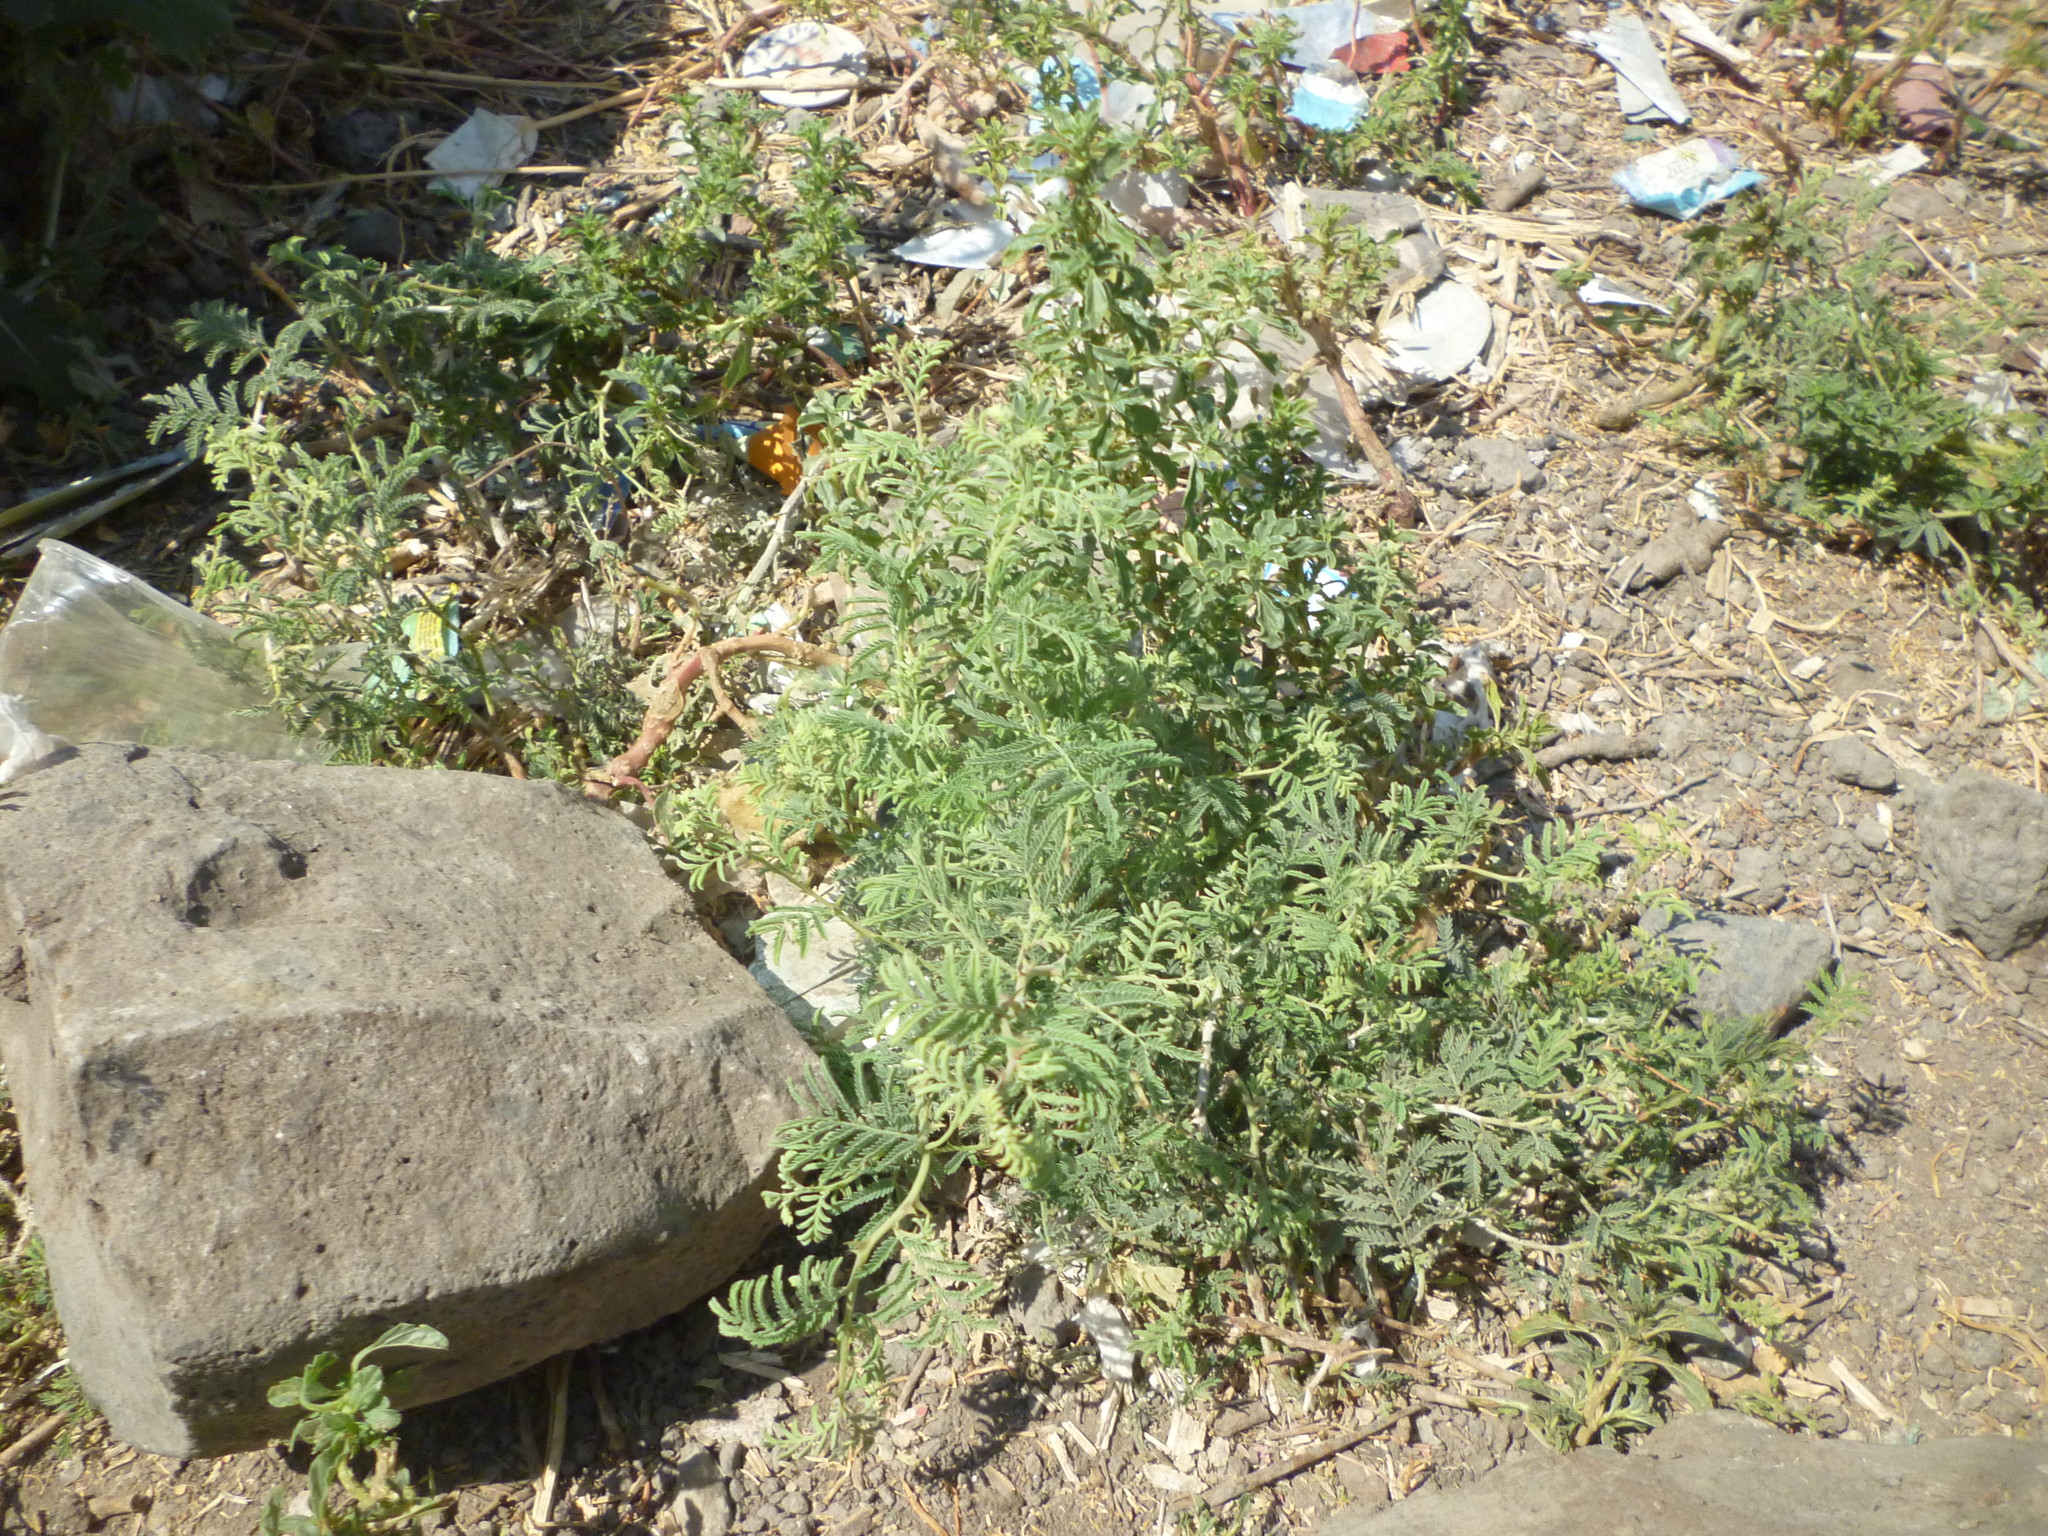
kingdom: Plantae
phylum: Tracheophyta
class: Magnoliopsida
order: Fabales
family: Fabaceae
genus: Prosopis
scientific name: Prosopis farcta
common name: Syrian mesquite
